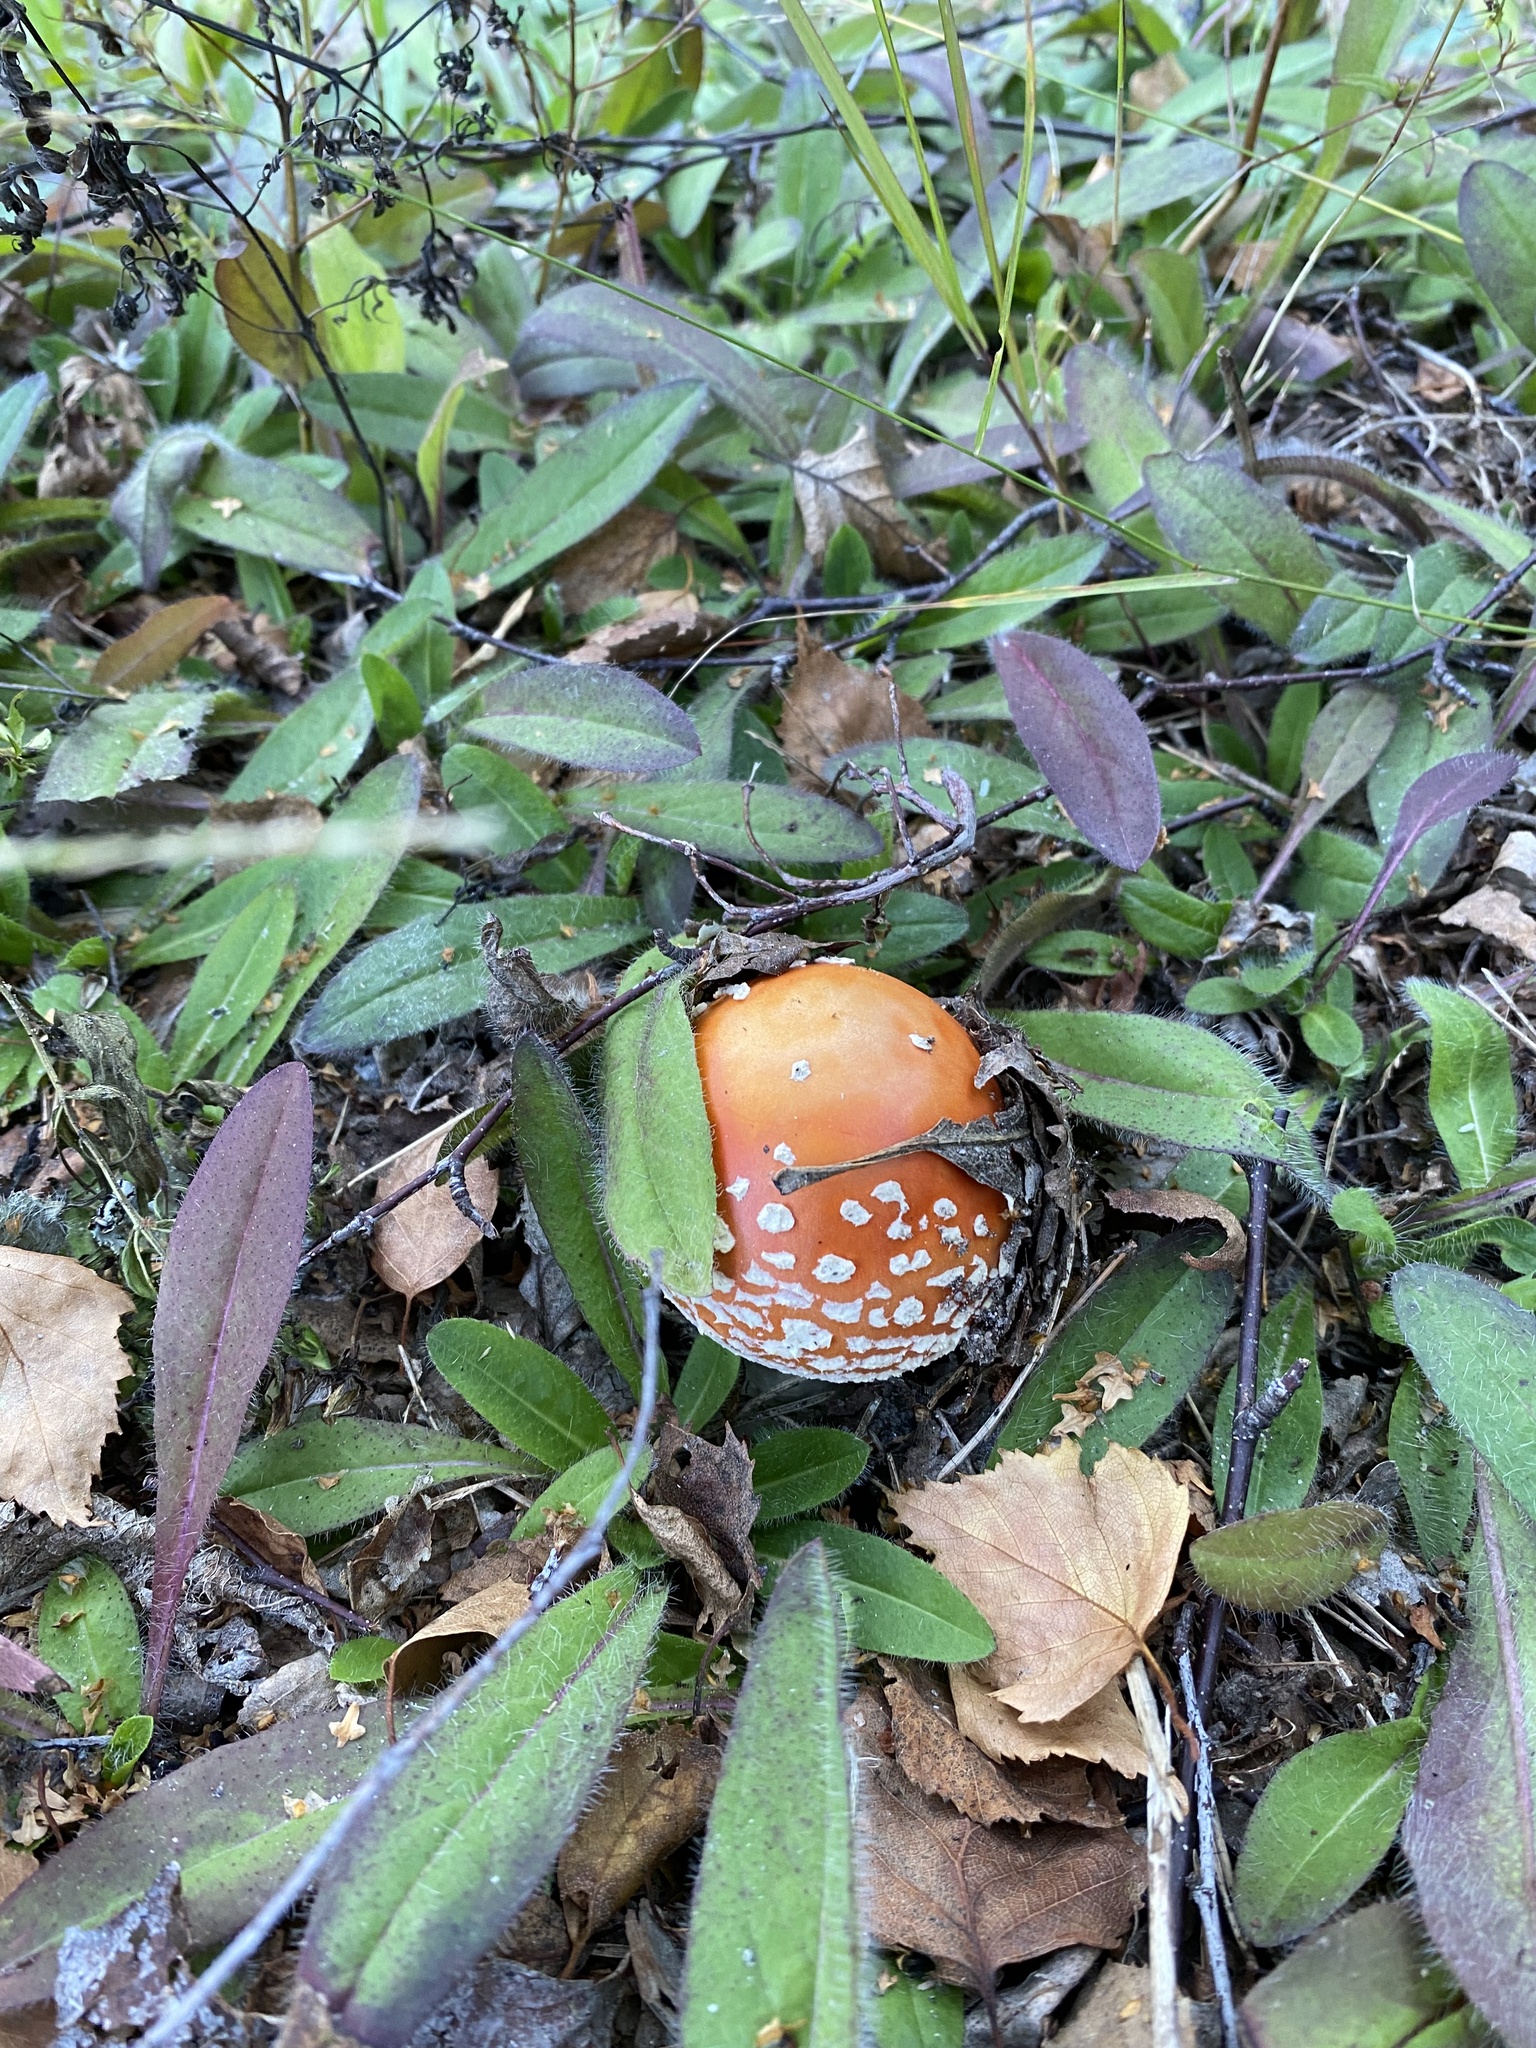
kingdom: Fungi
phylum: Basidiomycota
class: Agaricomycetes
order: Agaricales
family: Amanitaceae
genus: Amanita
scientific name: Amanita muscaria
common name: Fly agaric
